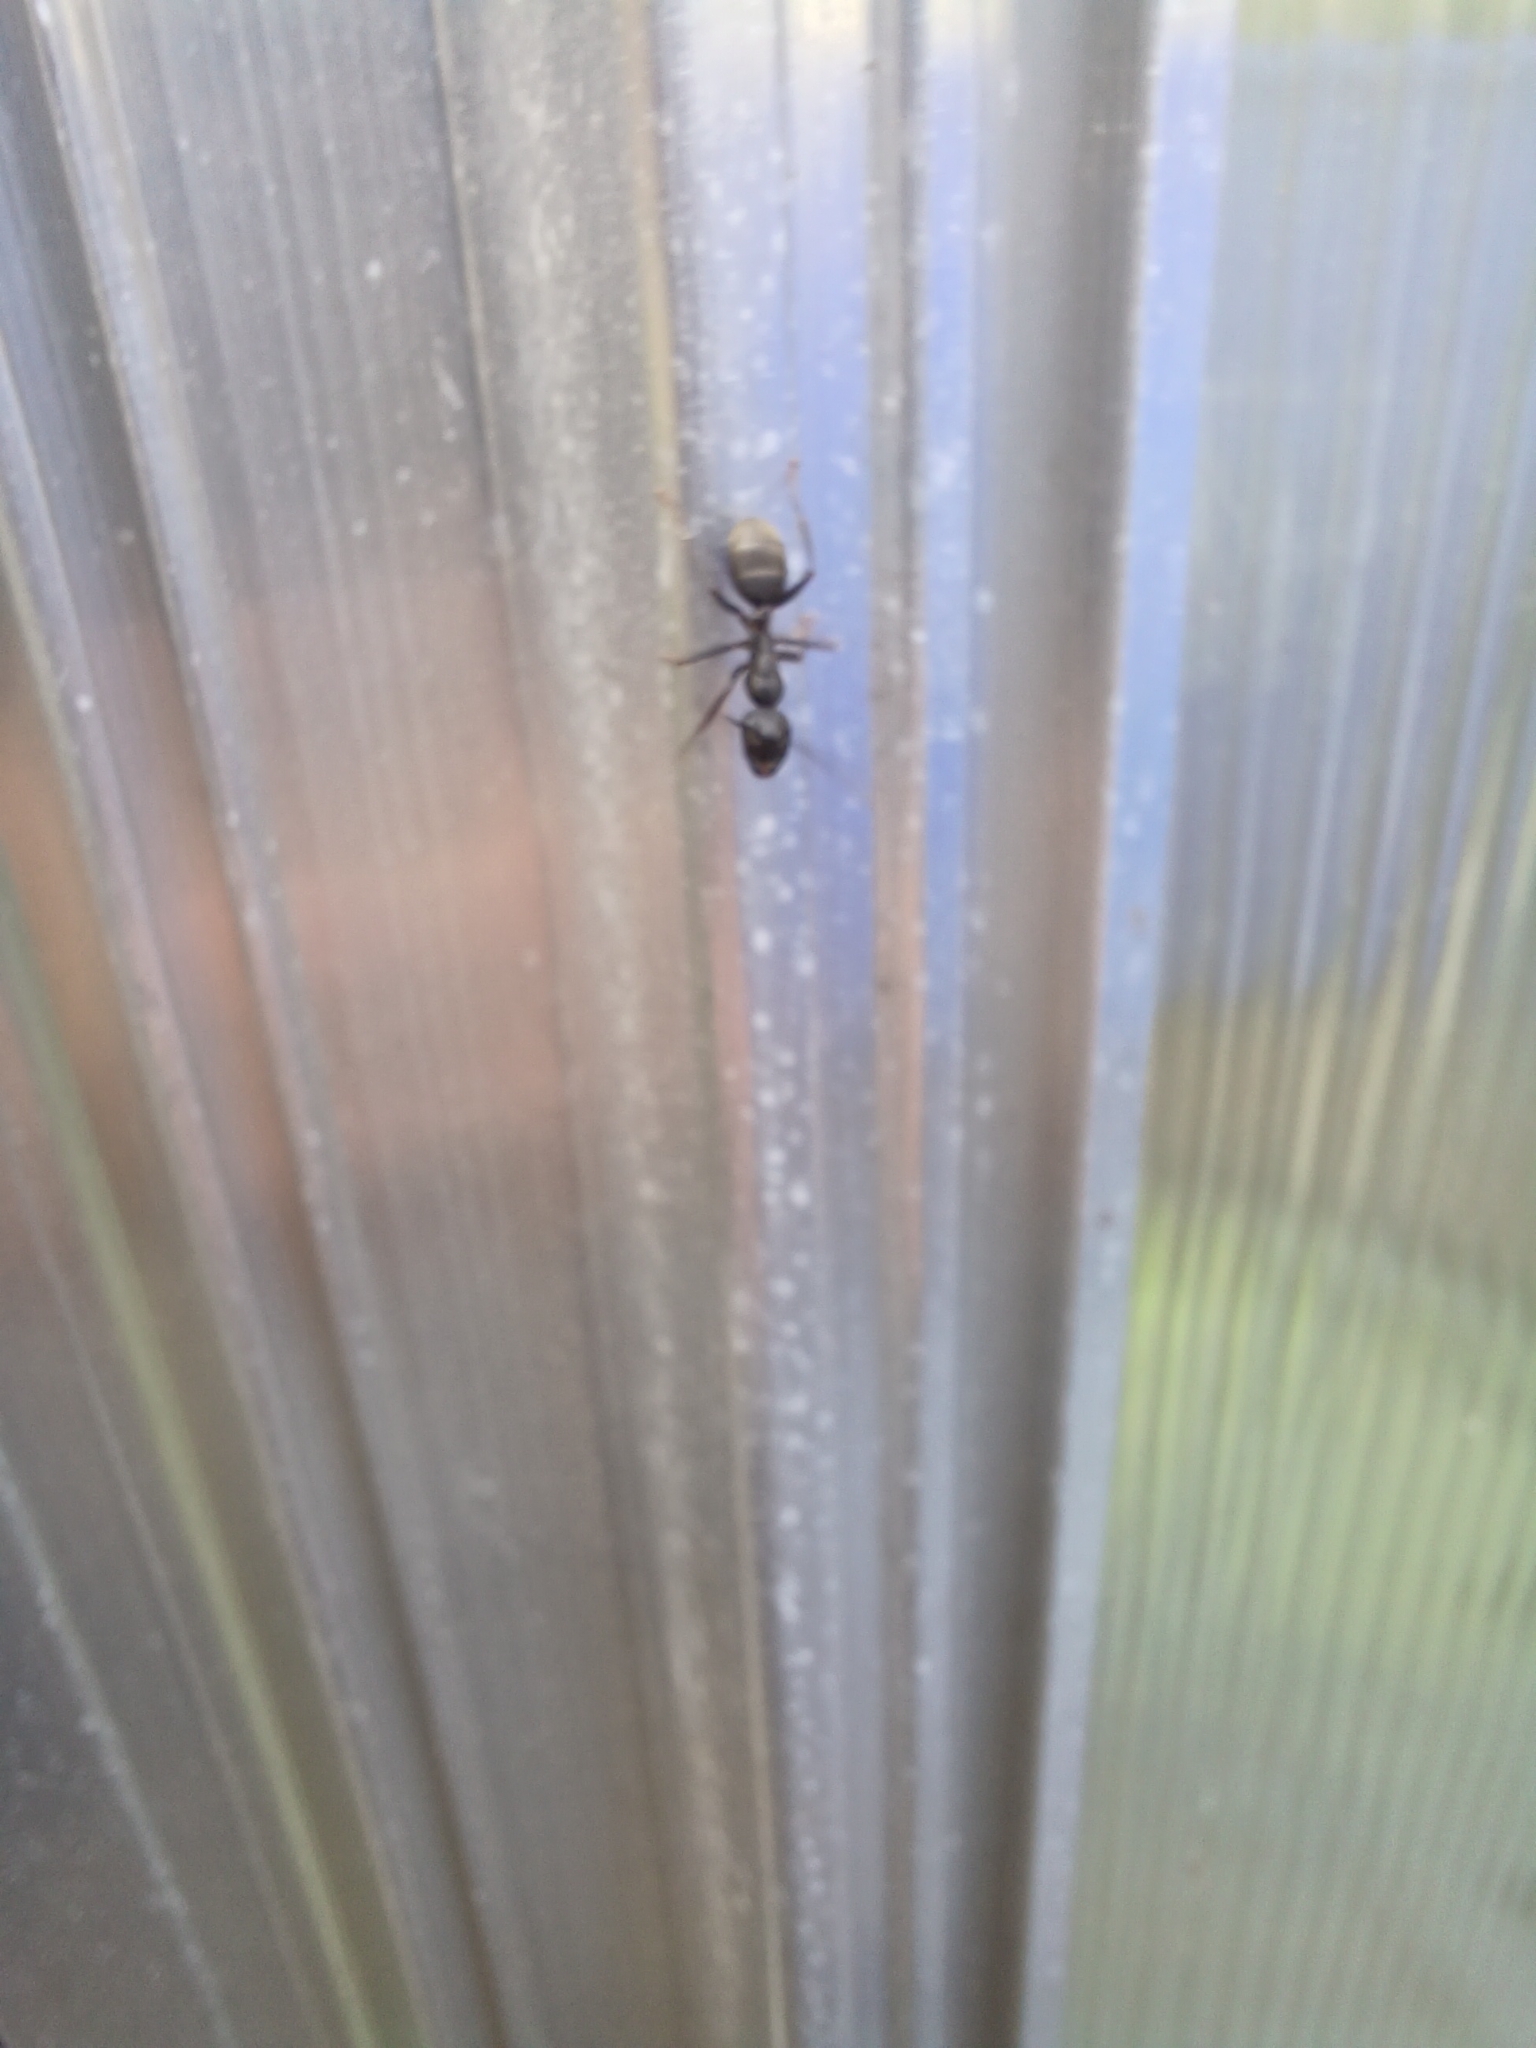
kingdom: Animalia
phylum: Arthropoda
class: Insecta
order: Hymenoptera
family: Formicidae
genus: Camponotus
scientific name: Camponotus pennsylvanicus
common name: Black carpenter ant
